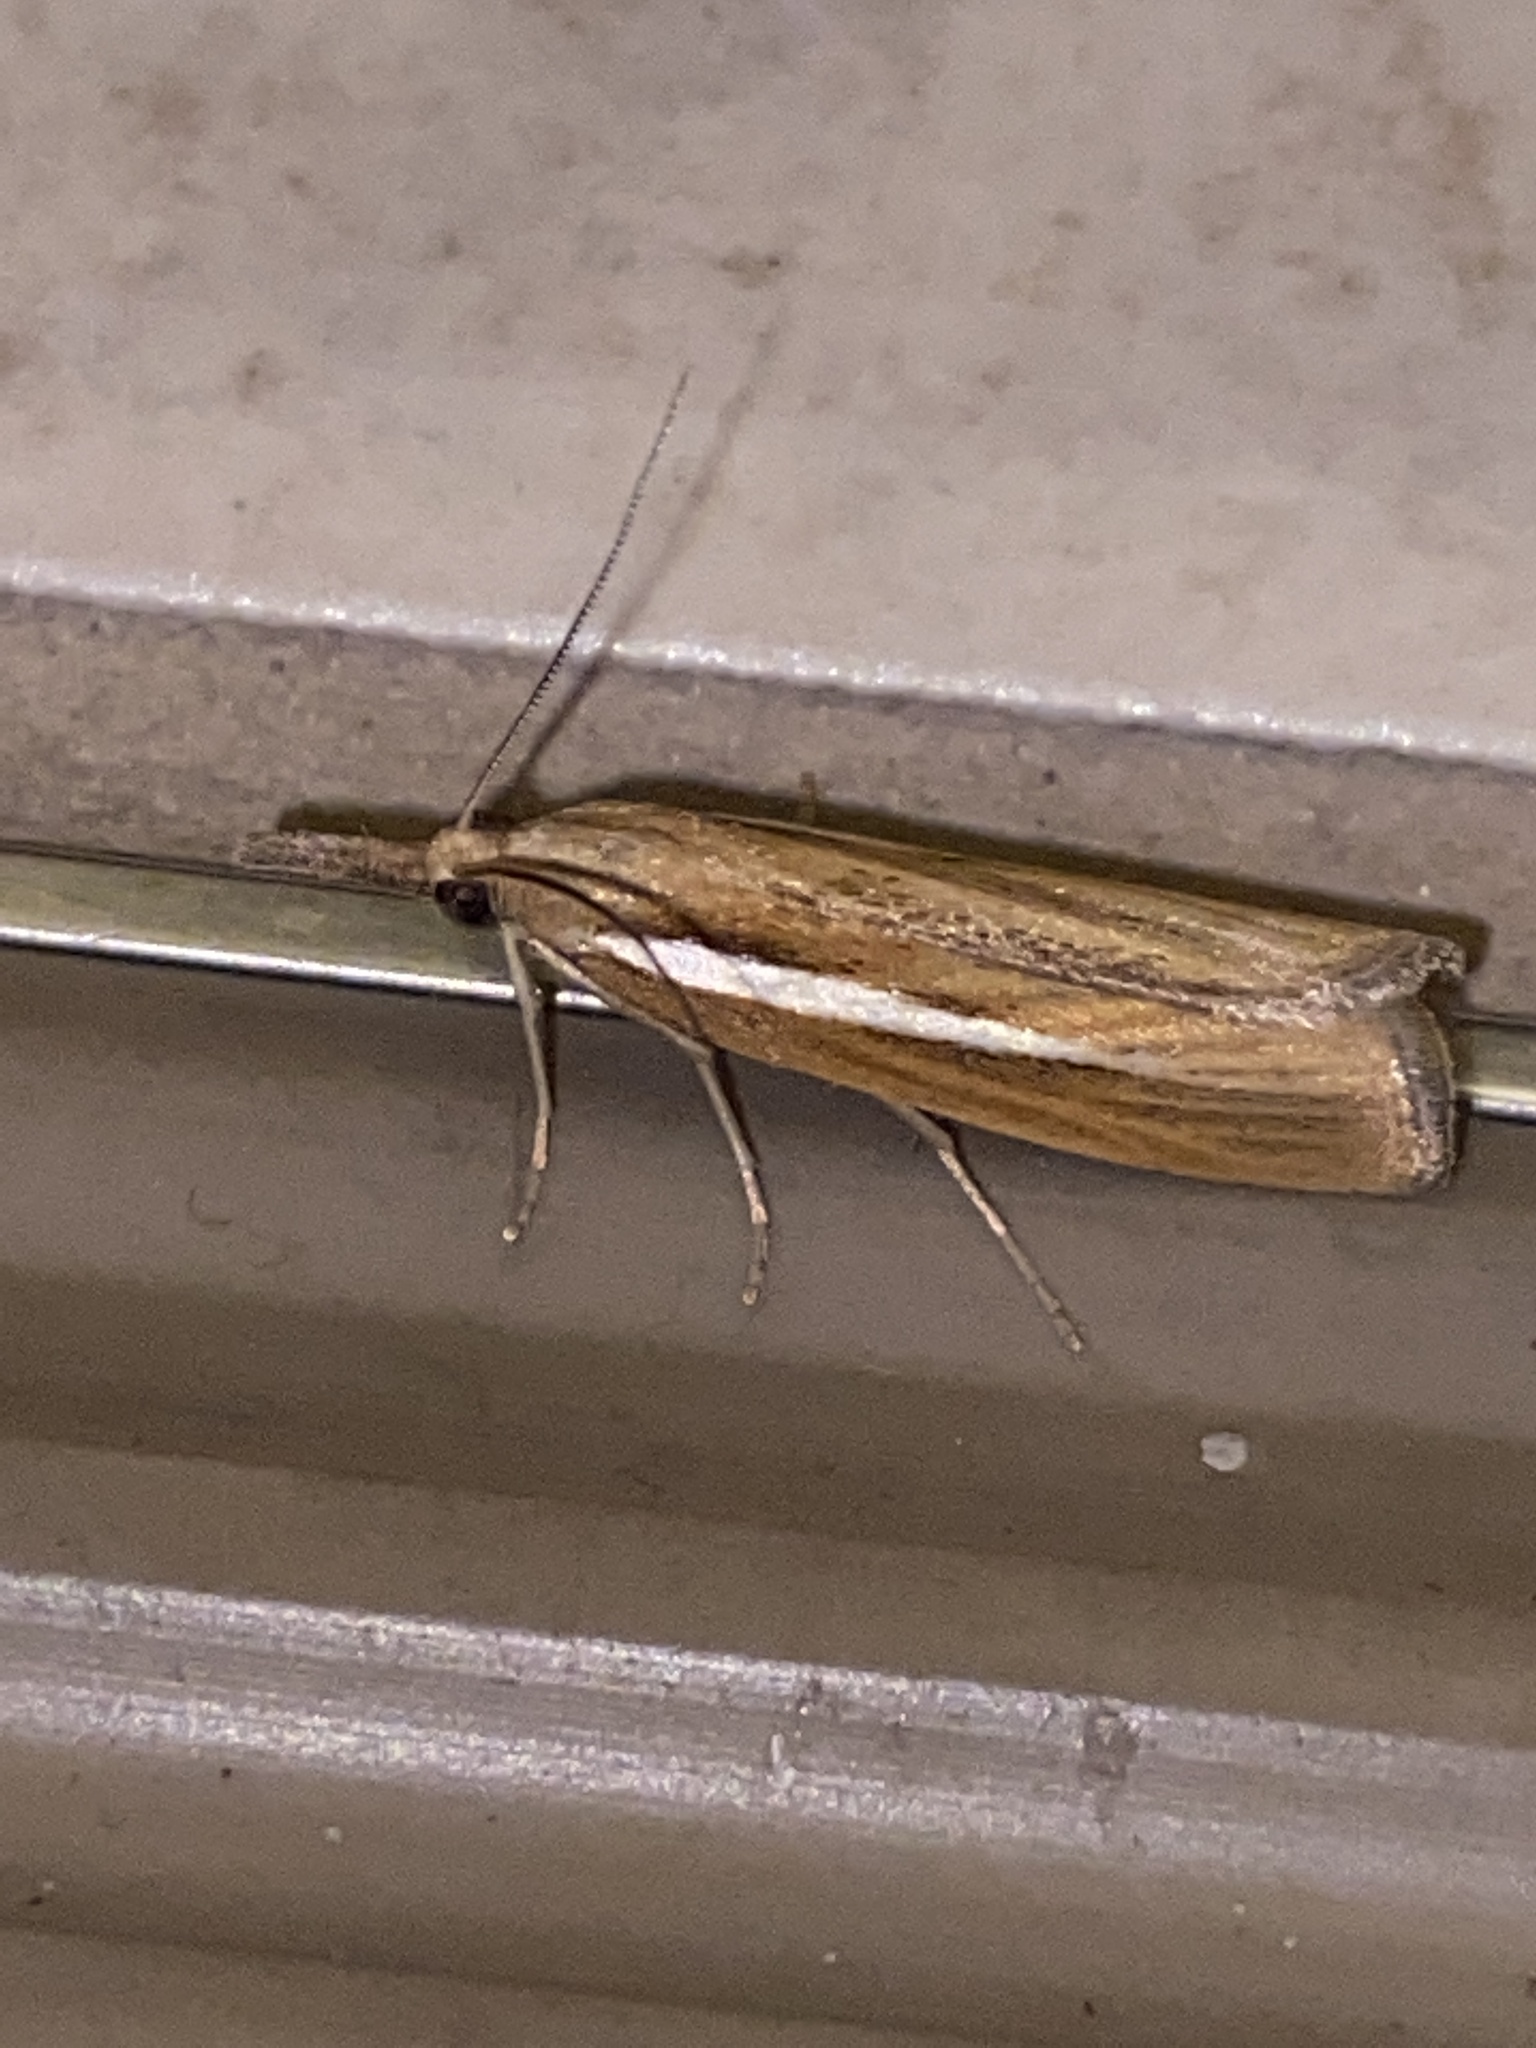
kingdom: Animalia
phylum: Arthropoda
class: Insecta
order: Lepidoptera
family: Crambidae
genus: Agriphila
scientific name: Agriphila tristellus
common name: Common grass-veneer
